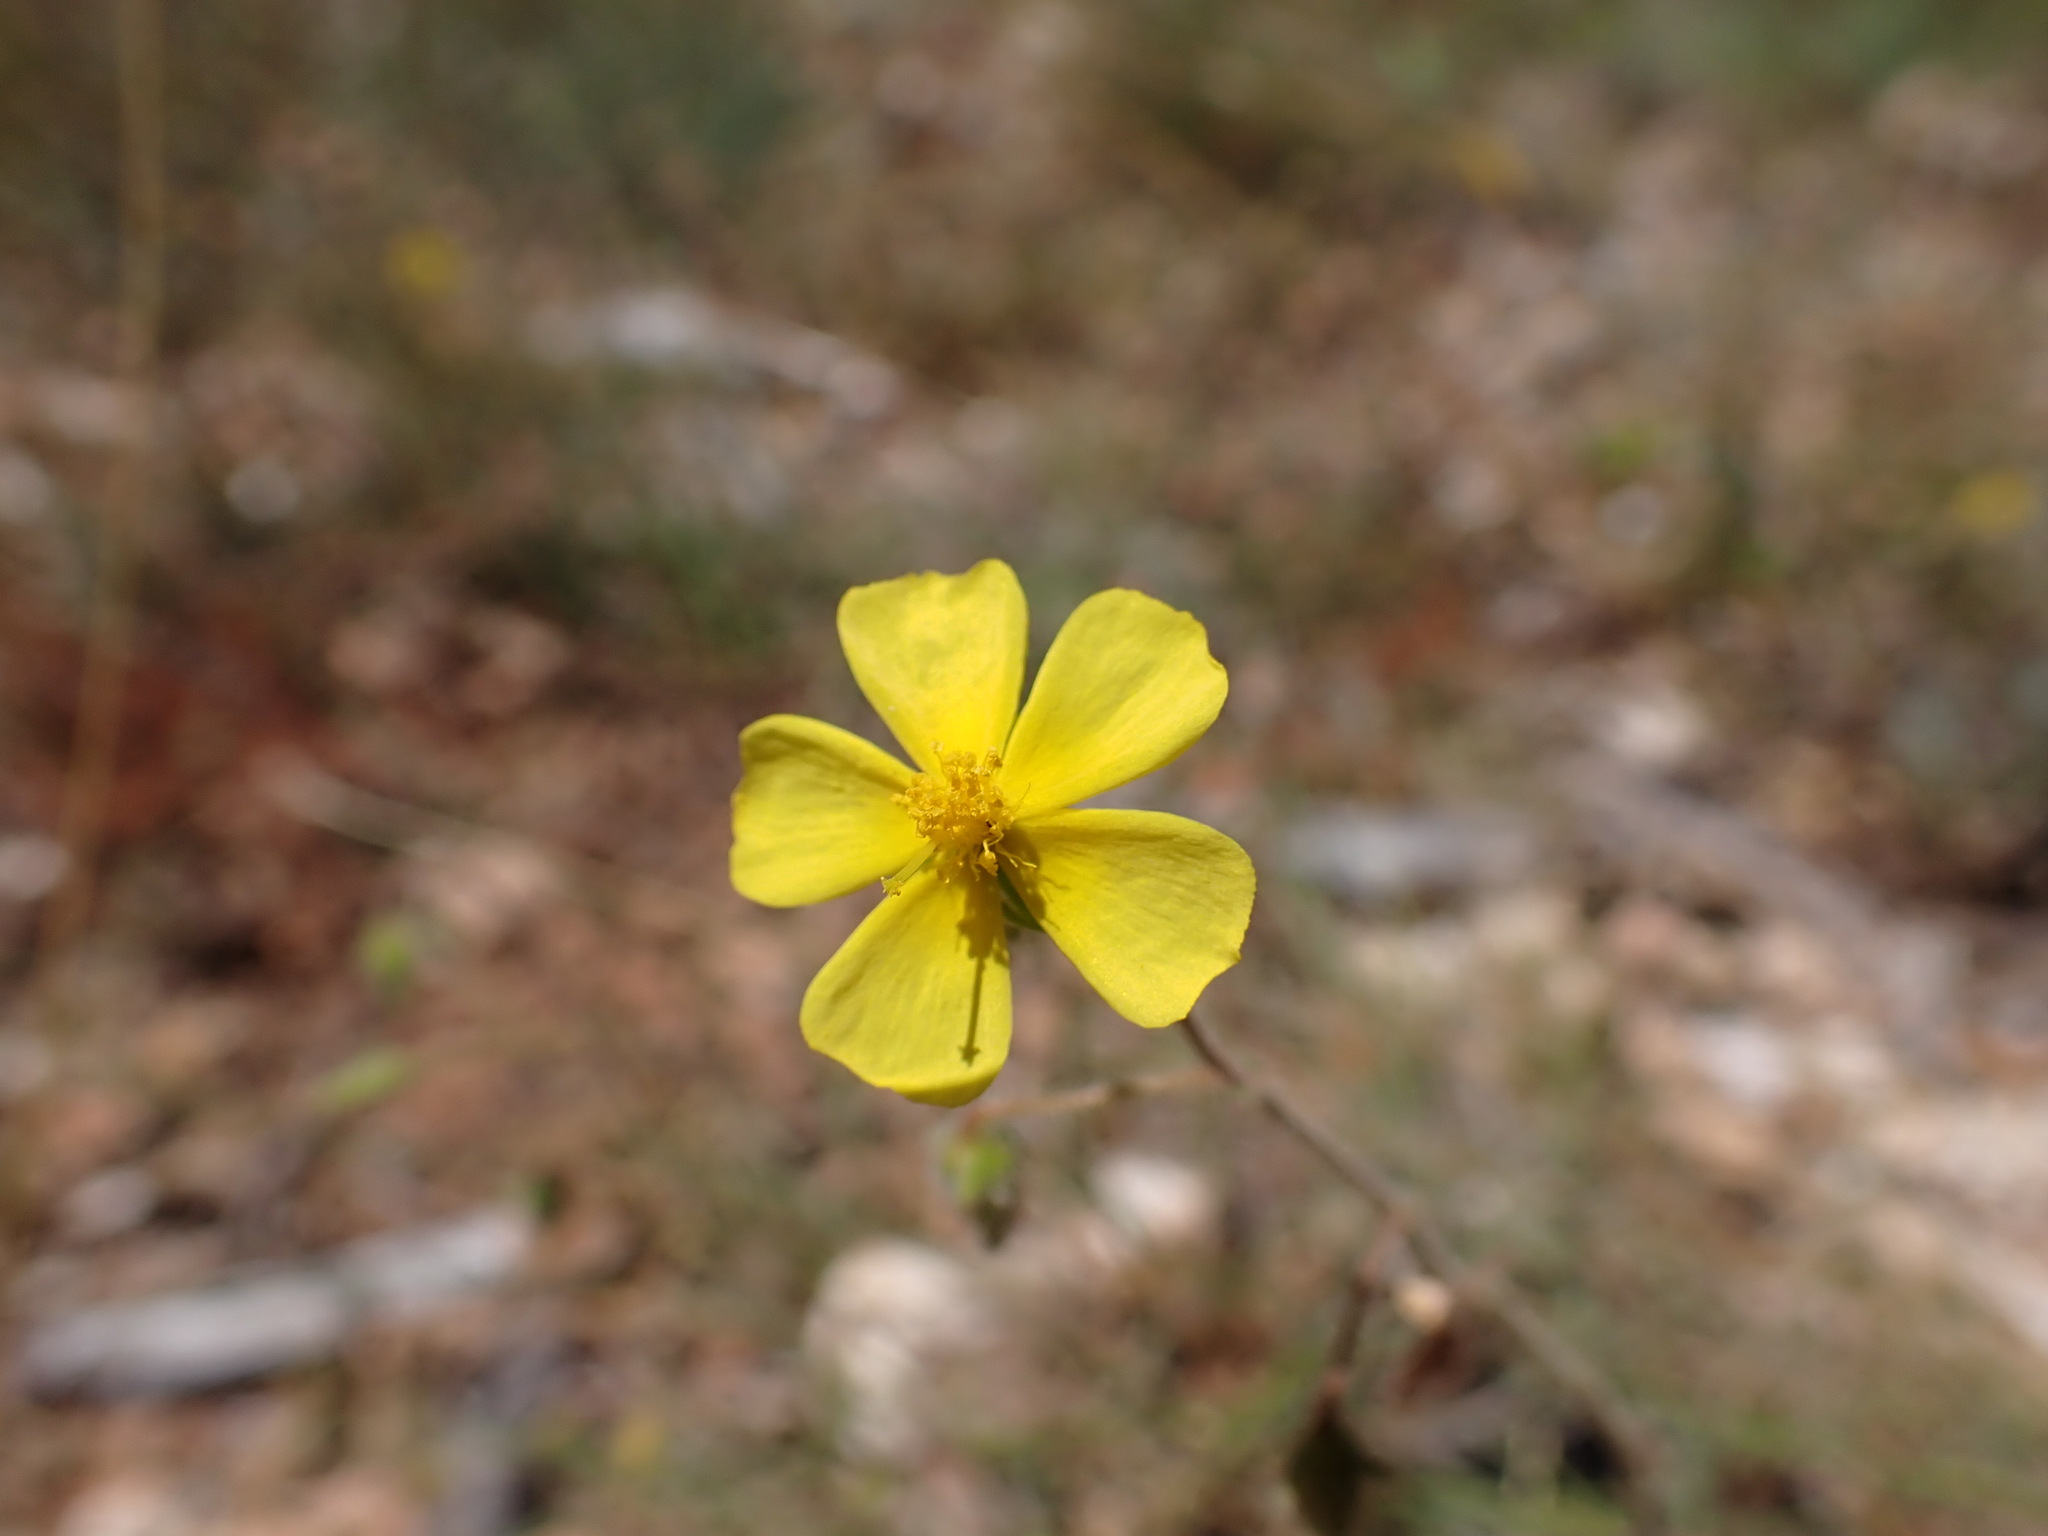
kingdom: Plantae
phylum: Tracheophyta
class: Magnoliopsida
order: Malvales
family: Cistaceae
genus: Fumana
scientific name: Fumana laevis
